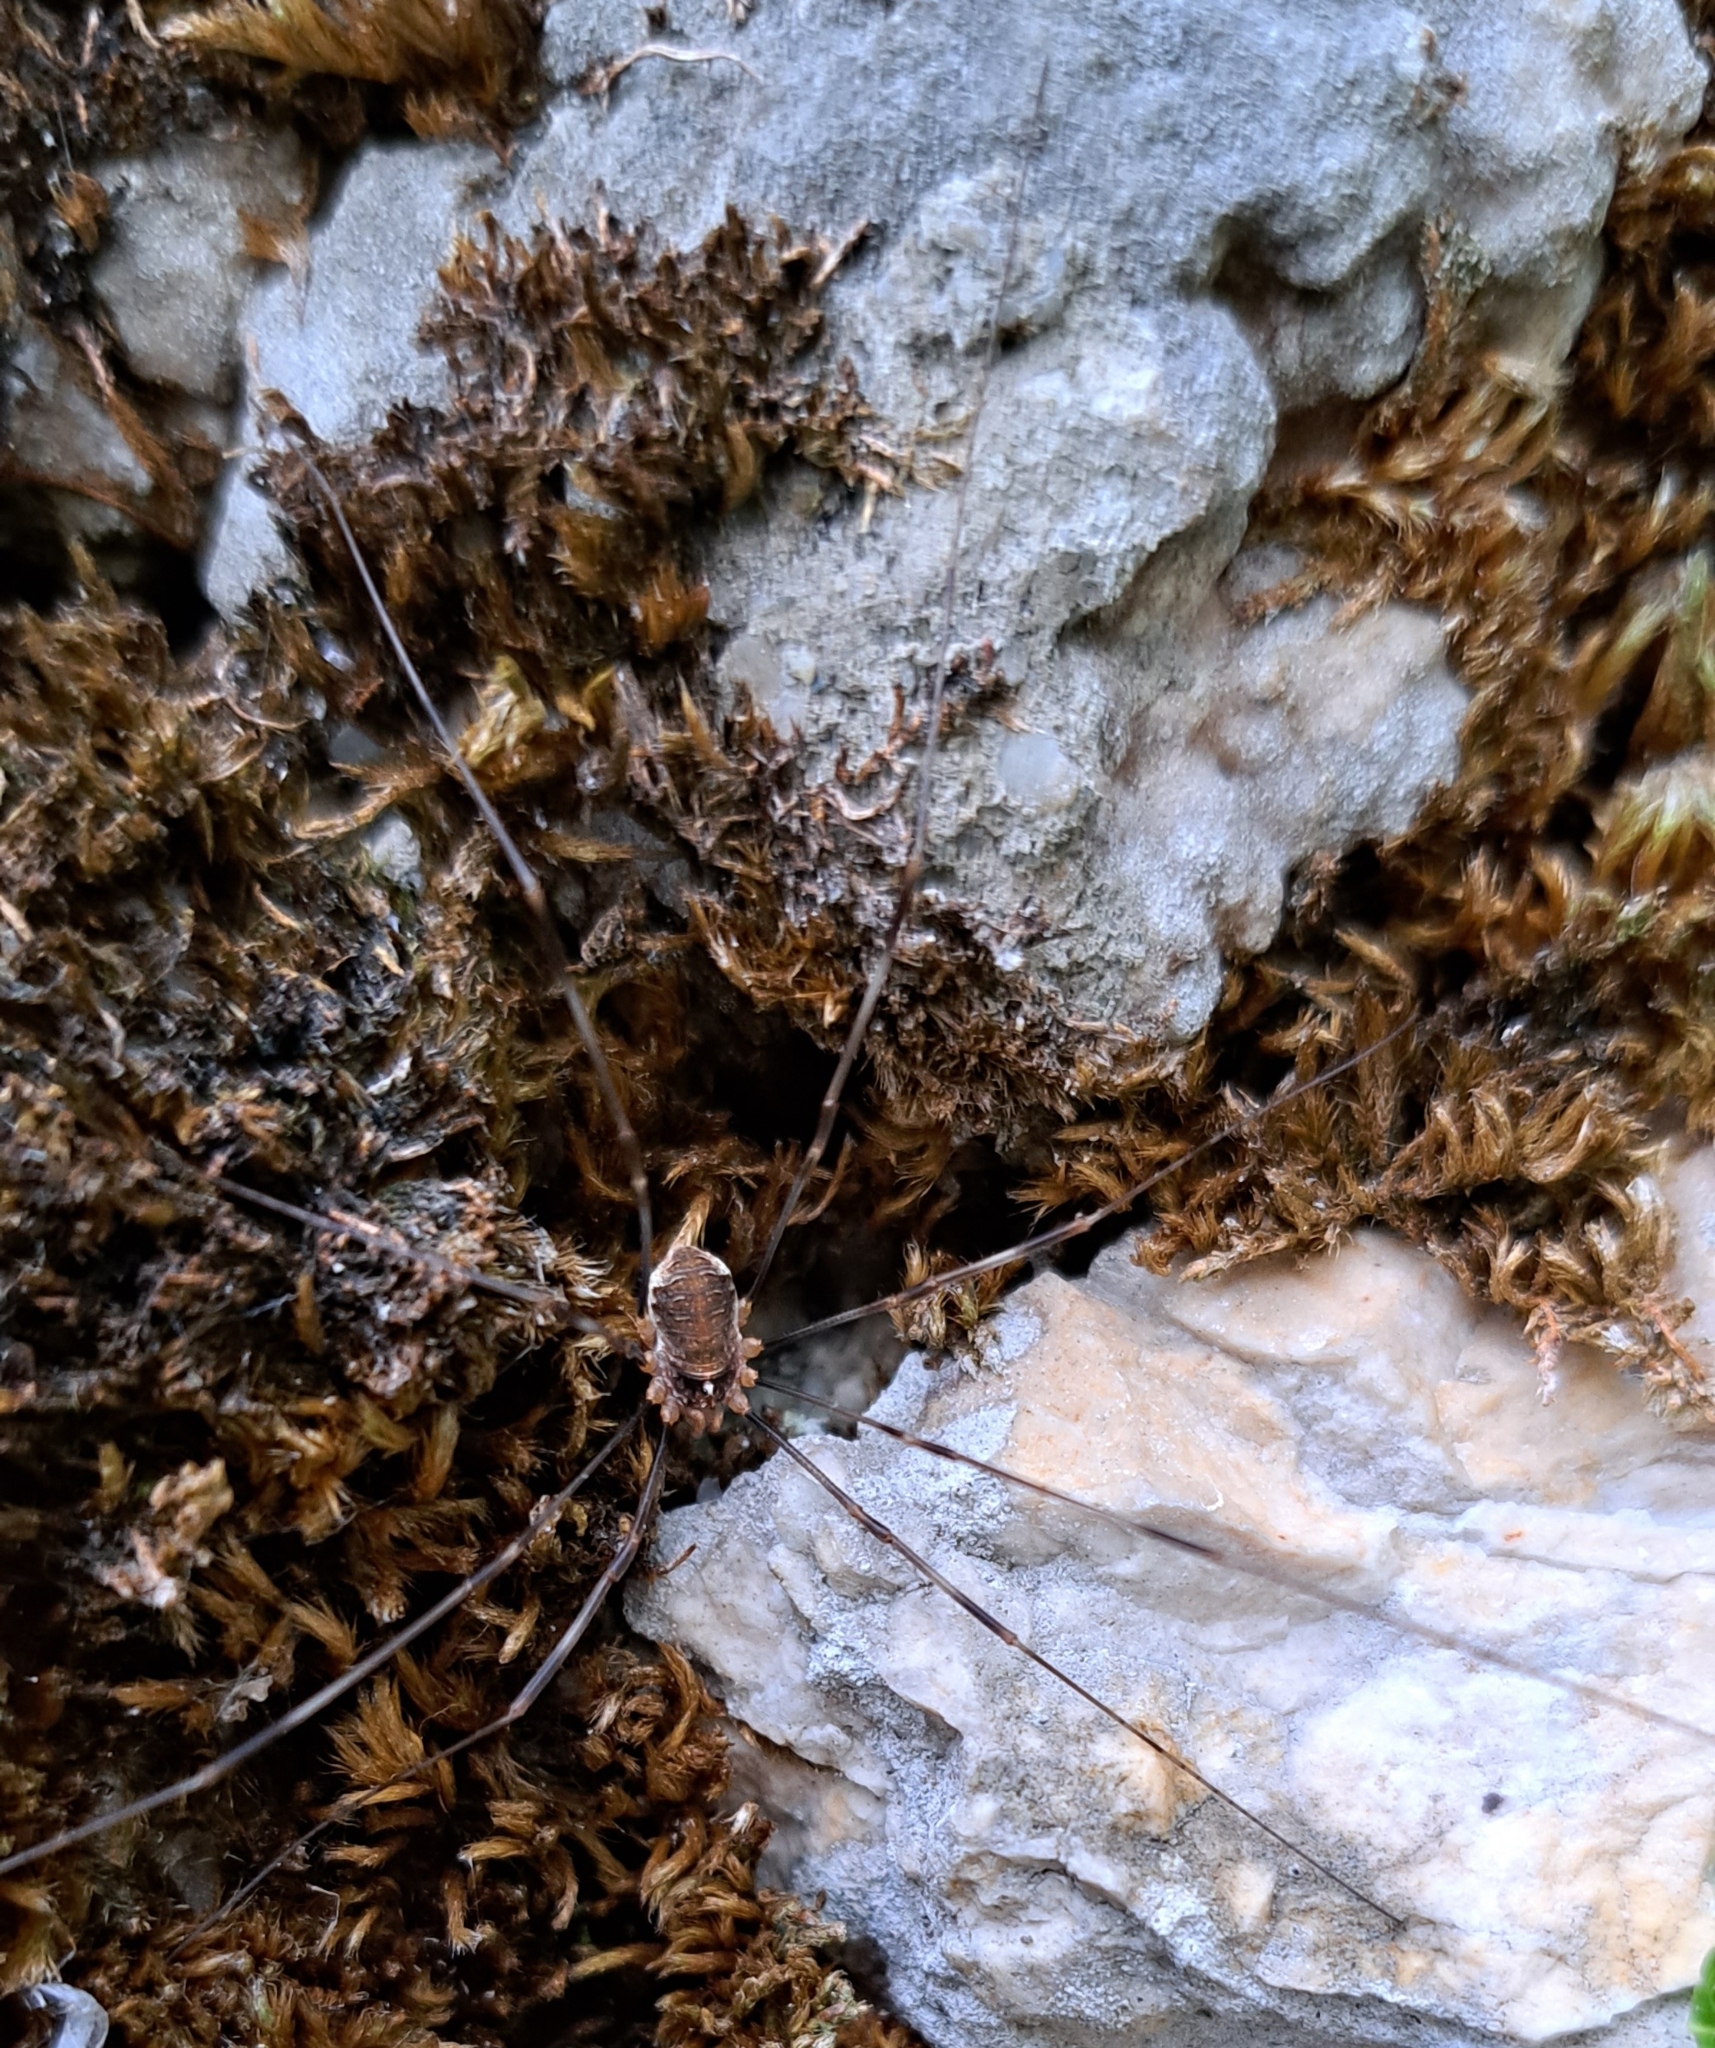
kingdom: Animalia
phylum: Arthropoda
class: Arachnida
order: Opiliones
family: Phalangiidae
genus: Opilio
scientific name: Opilio canestrinii
